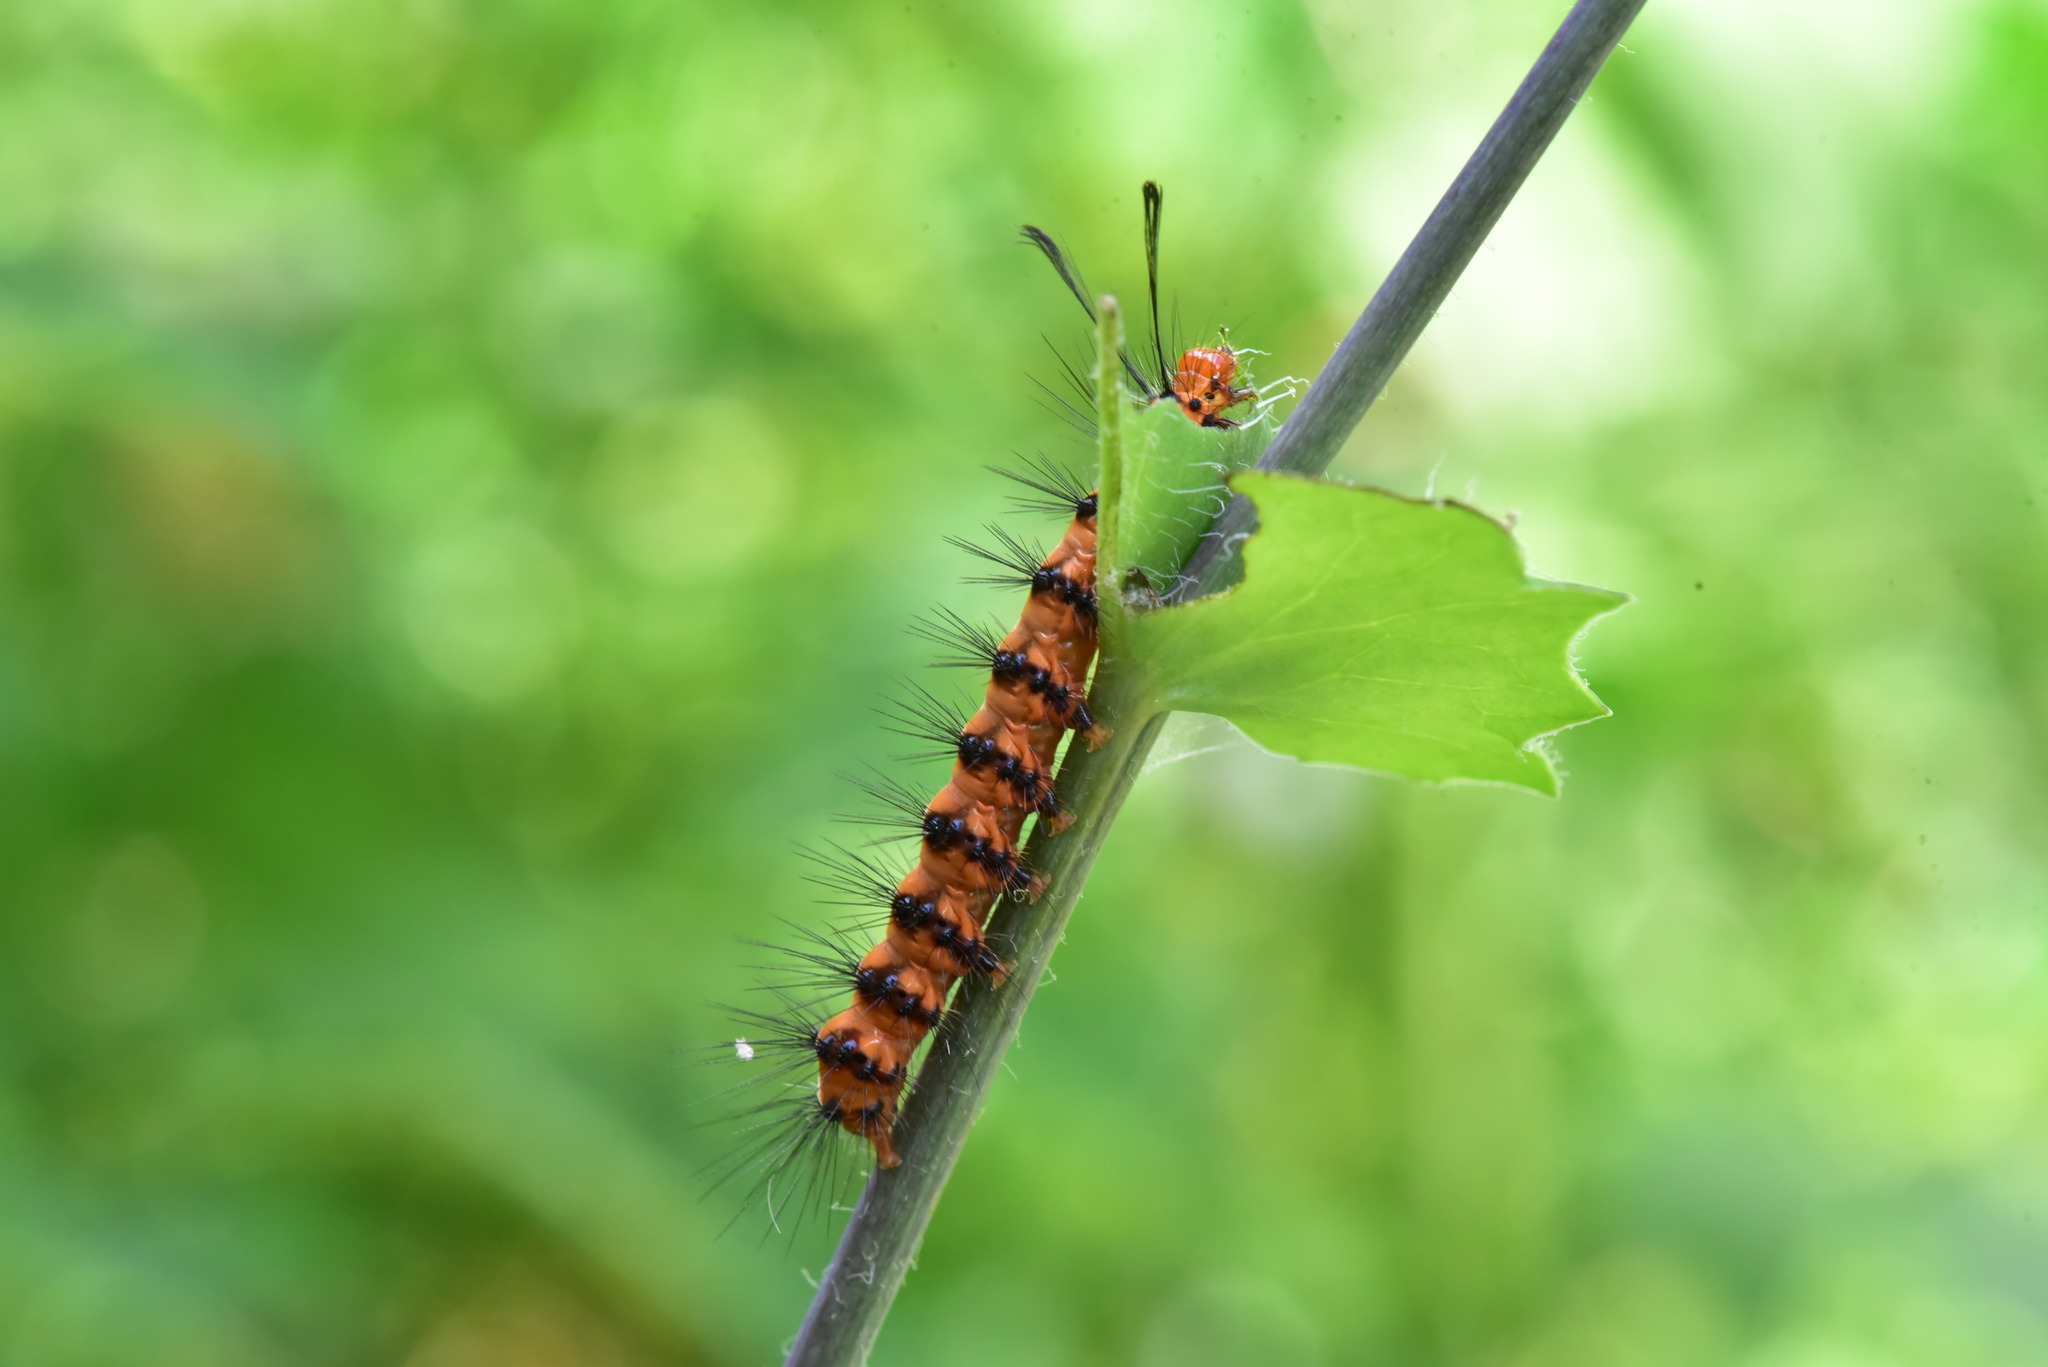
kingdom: Animalia
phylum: Arthropoda
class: Insecta
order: Lepidoptera
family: Erebidae
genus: Nyctemera
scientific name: Nyctemera lacticinia
